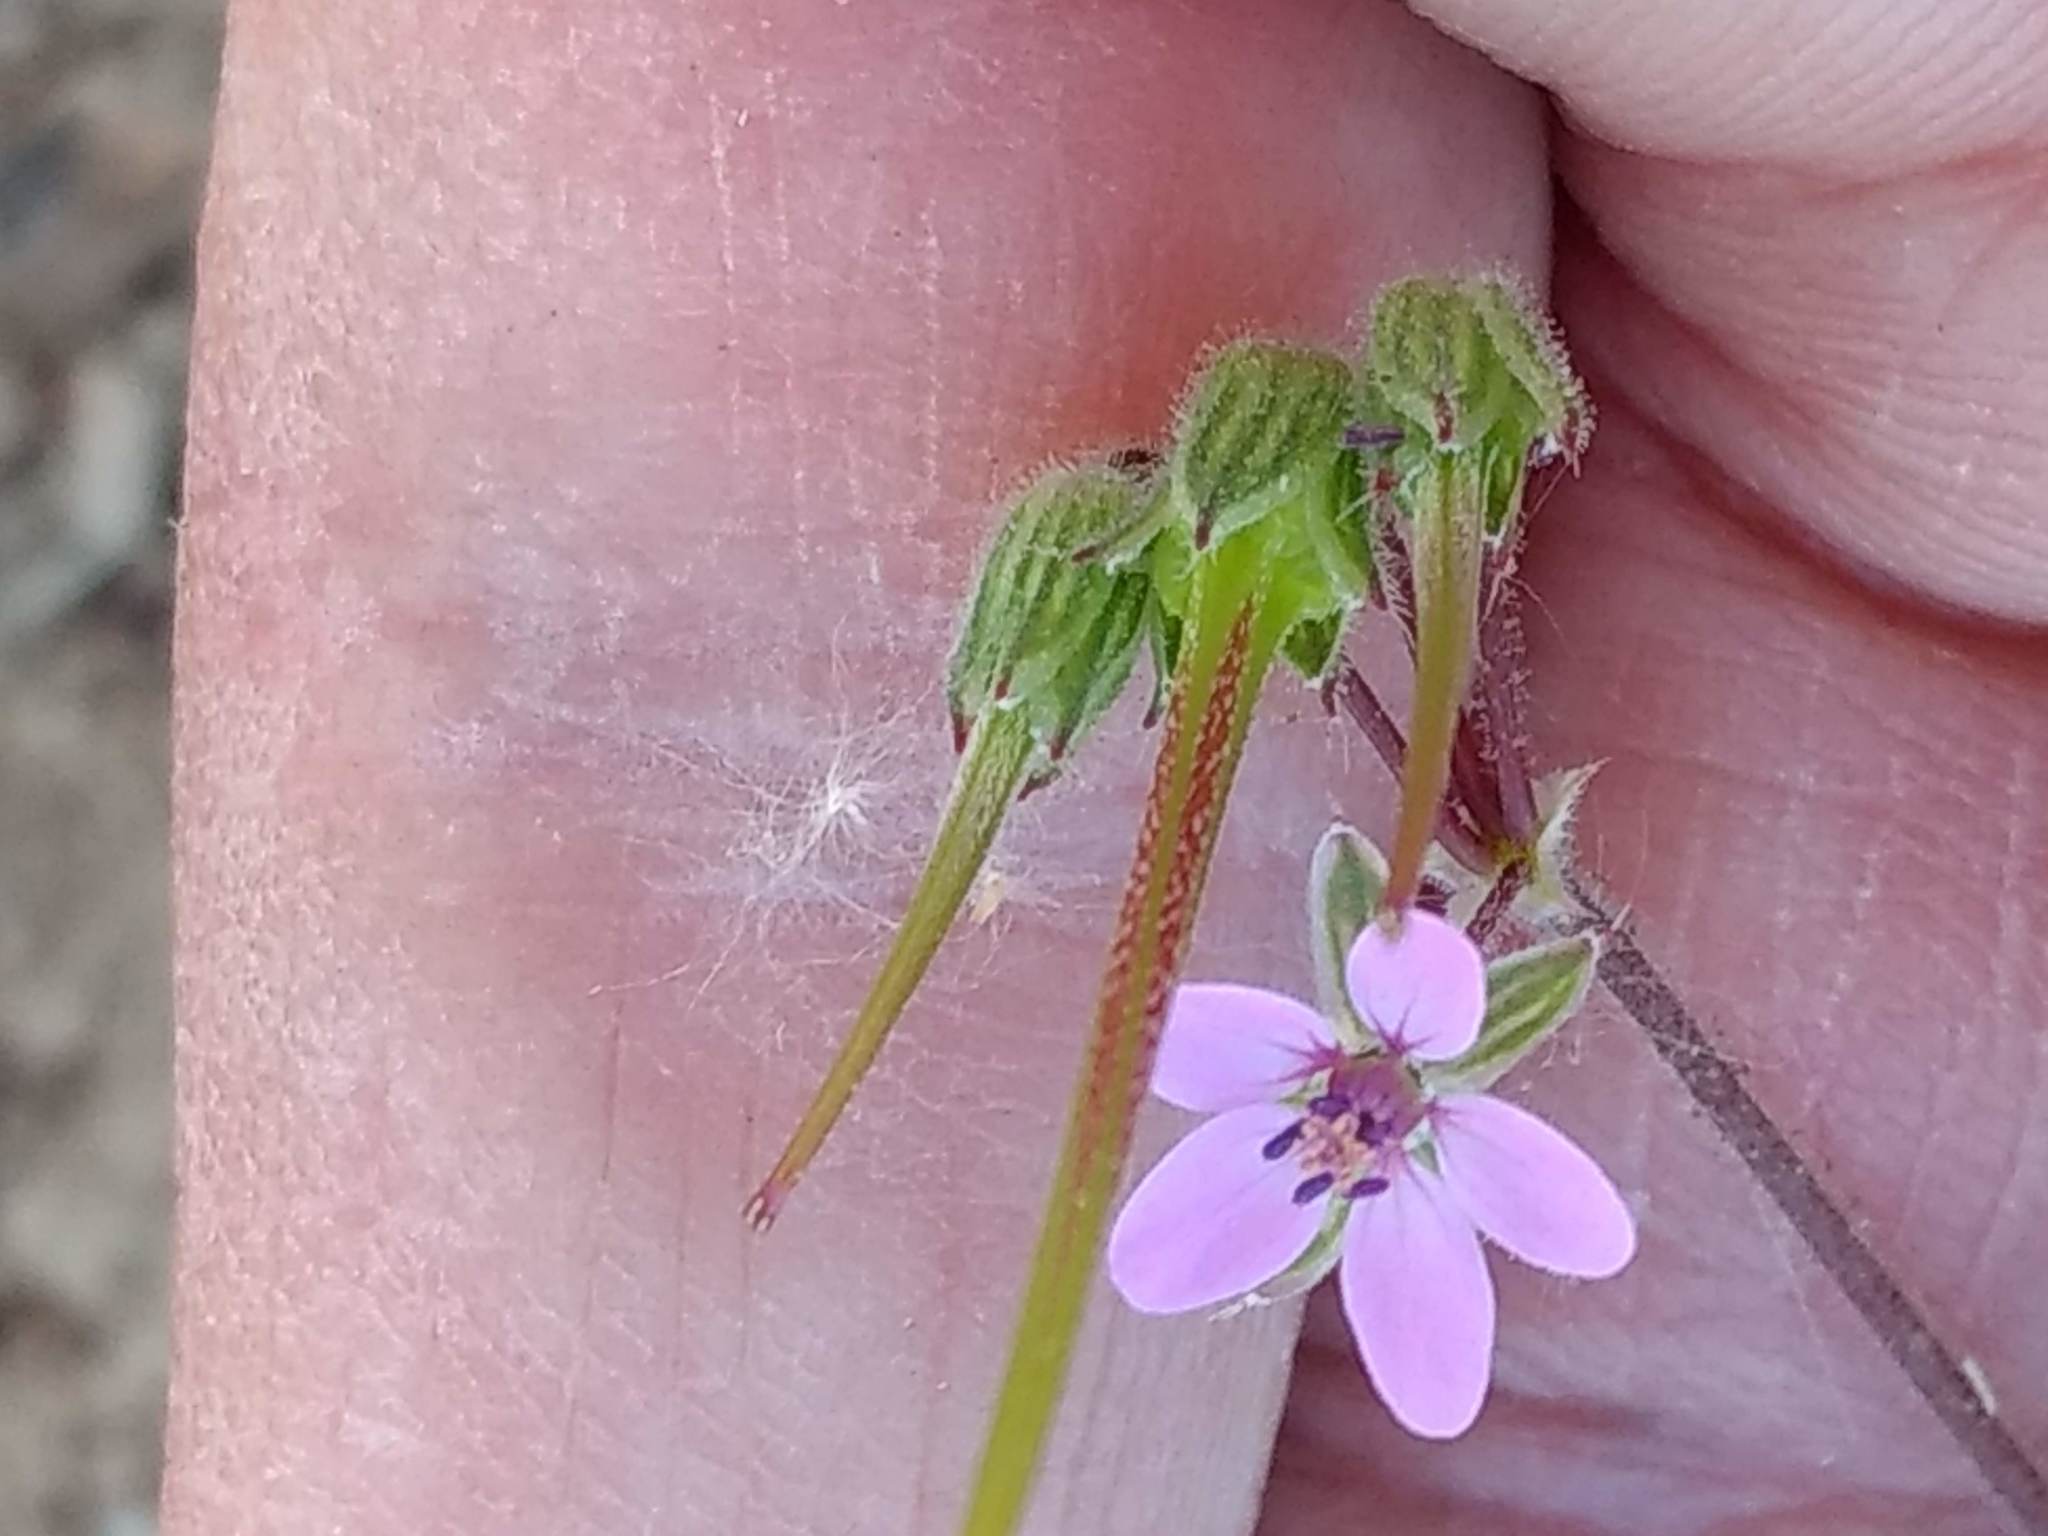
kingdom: Plantae
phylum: Tracheophyta
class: Magnoliopsida
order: Geraniales
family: Geraniaceae
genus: Erodium
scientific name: Erodium cicutarium
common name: Common stork's-bill
